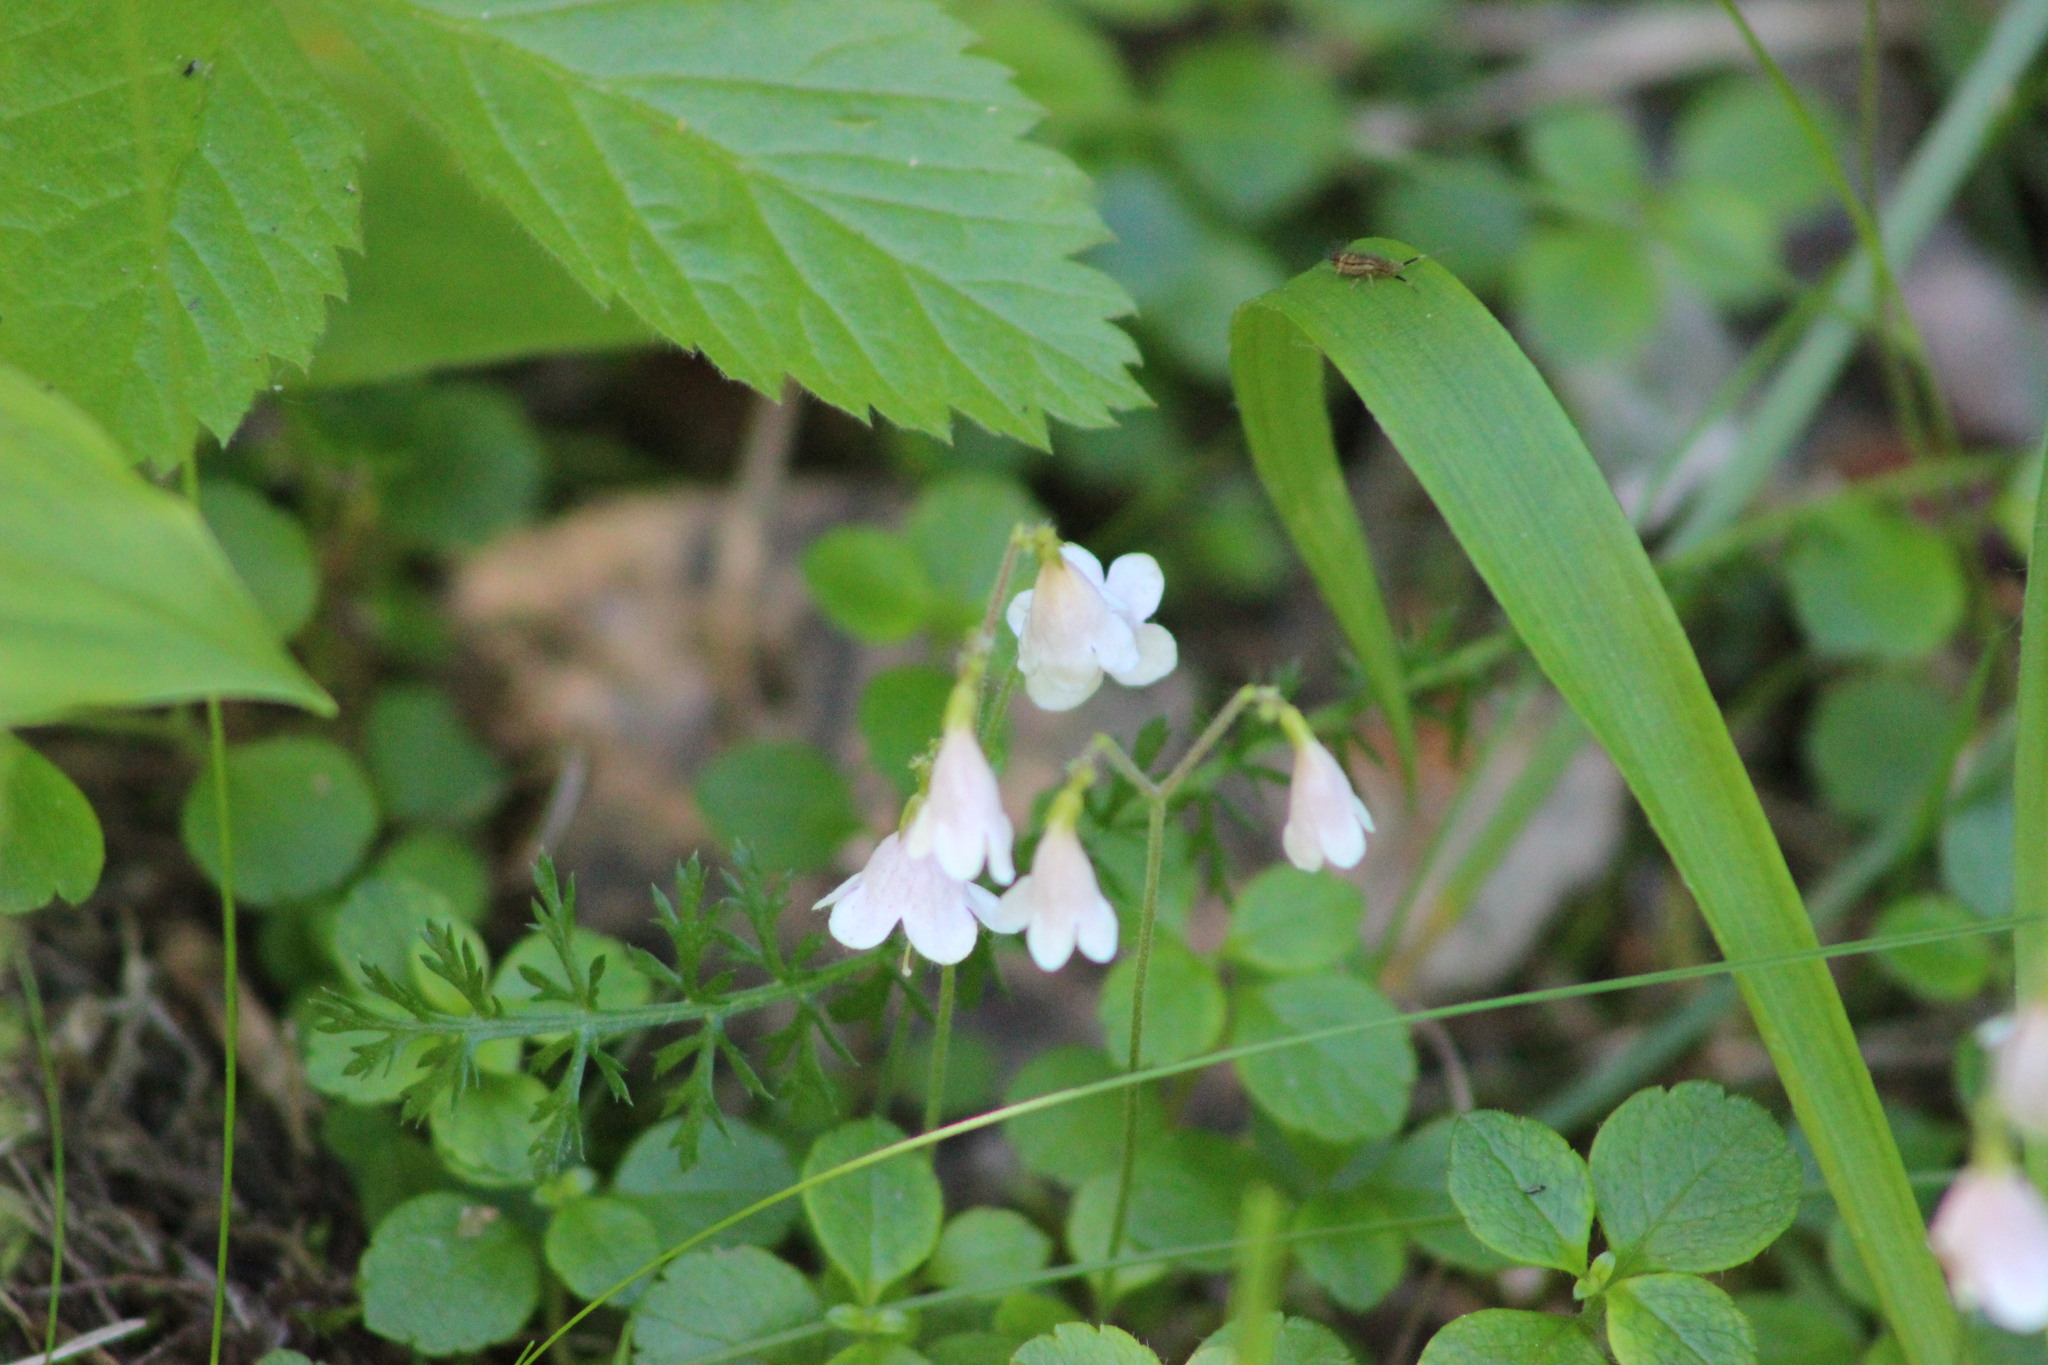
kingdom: Plantae
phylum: Tracheophyta
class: Magnoliopsida
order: Dipsacales
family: Caprifoliaceae
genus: Linnaea
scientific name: Linnaea borealis
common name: Twinflower
